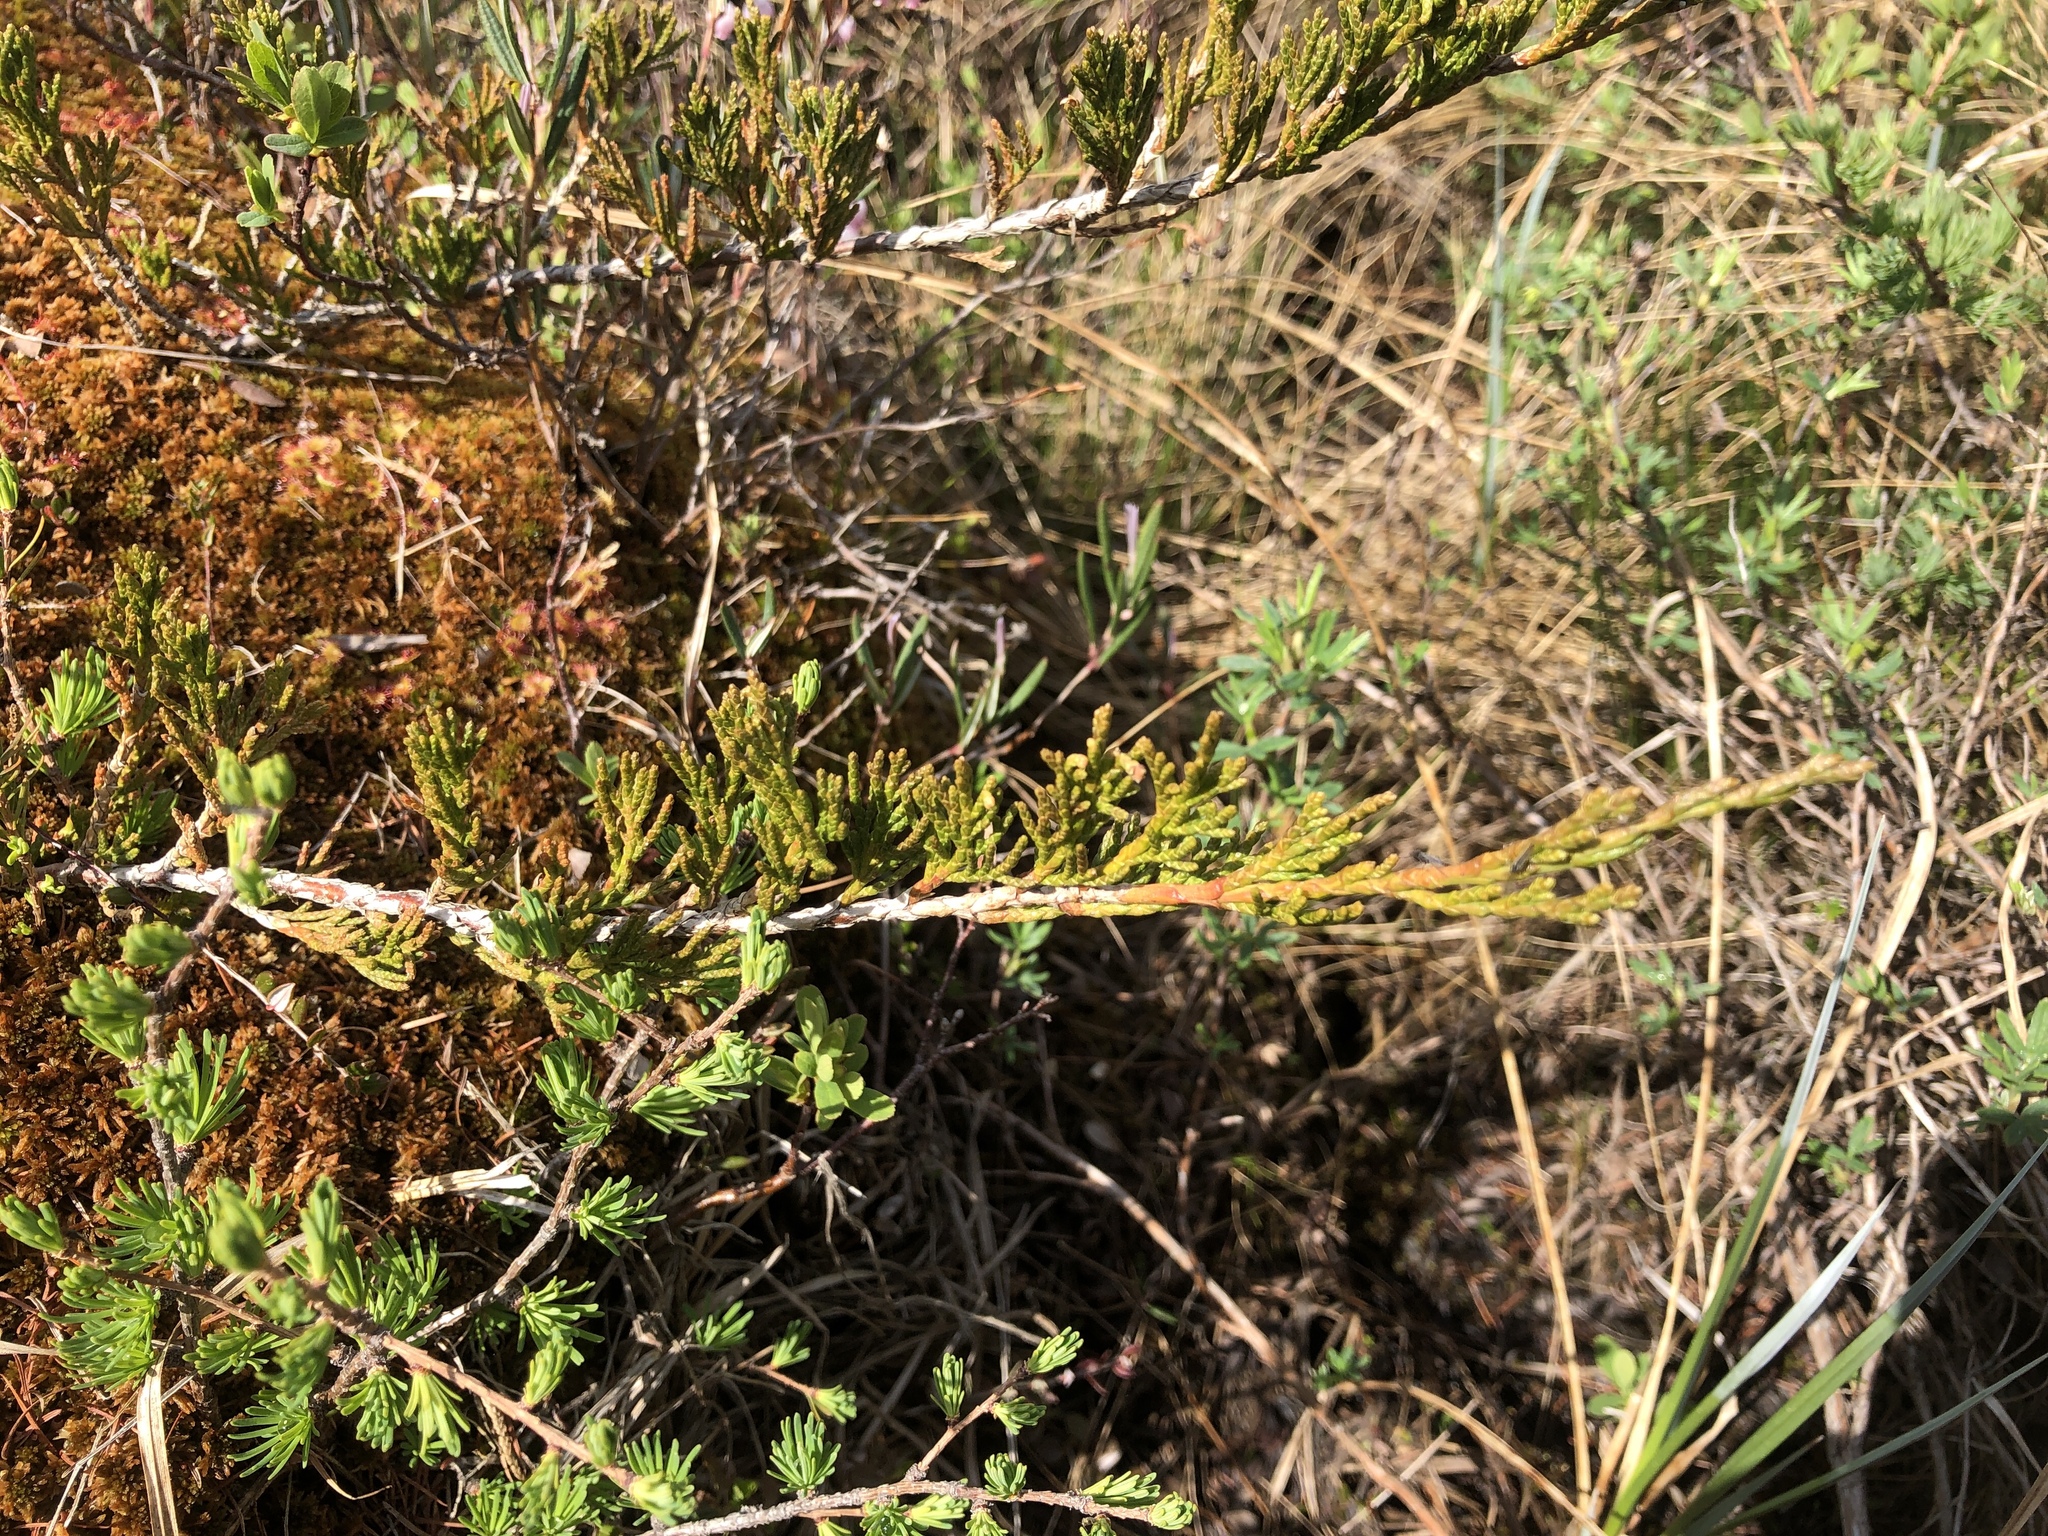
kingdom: Plantae
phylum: Tracheophyta
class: Pinopsida
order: Pinales
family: Cupressaceae
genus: Juniperus
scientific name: Juniperus horizontalis
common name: Creeping juniper
